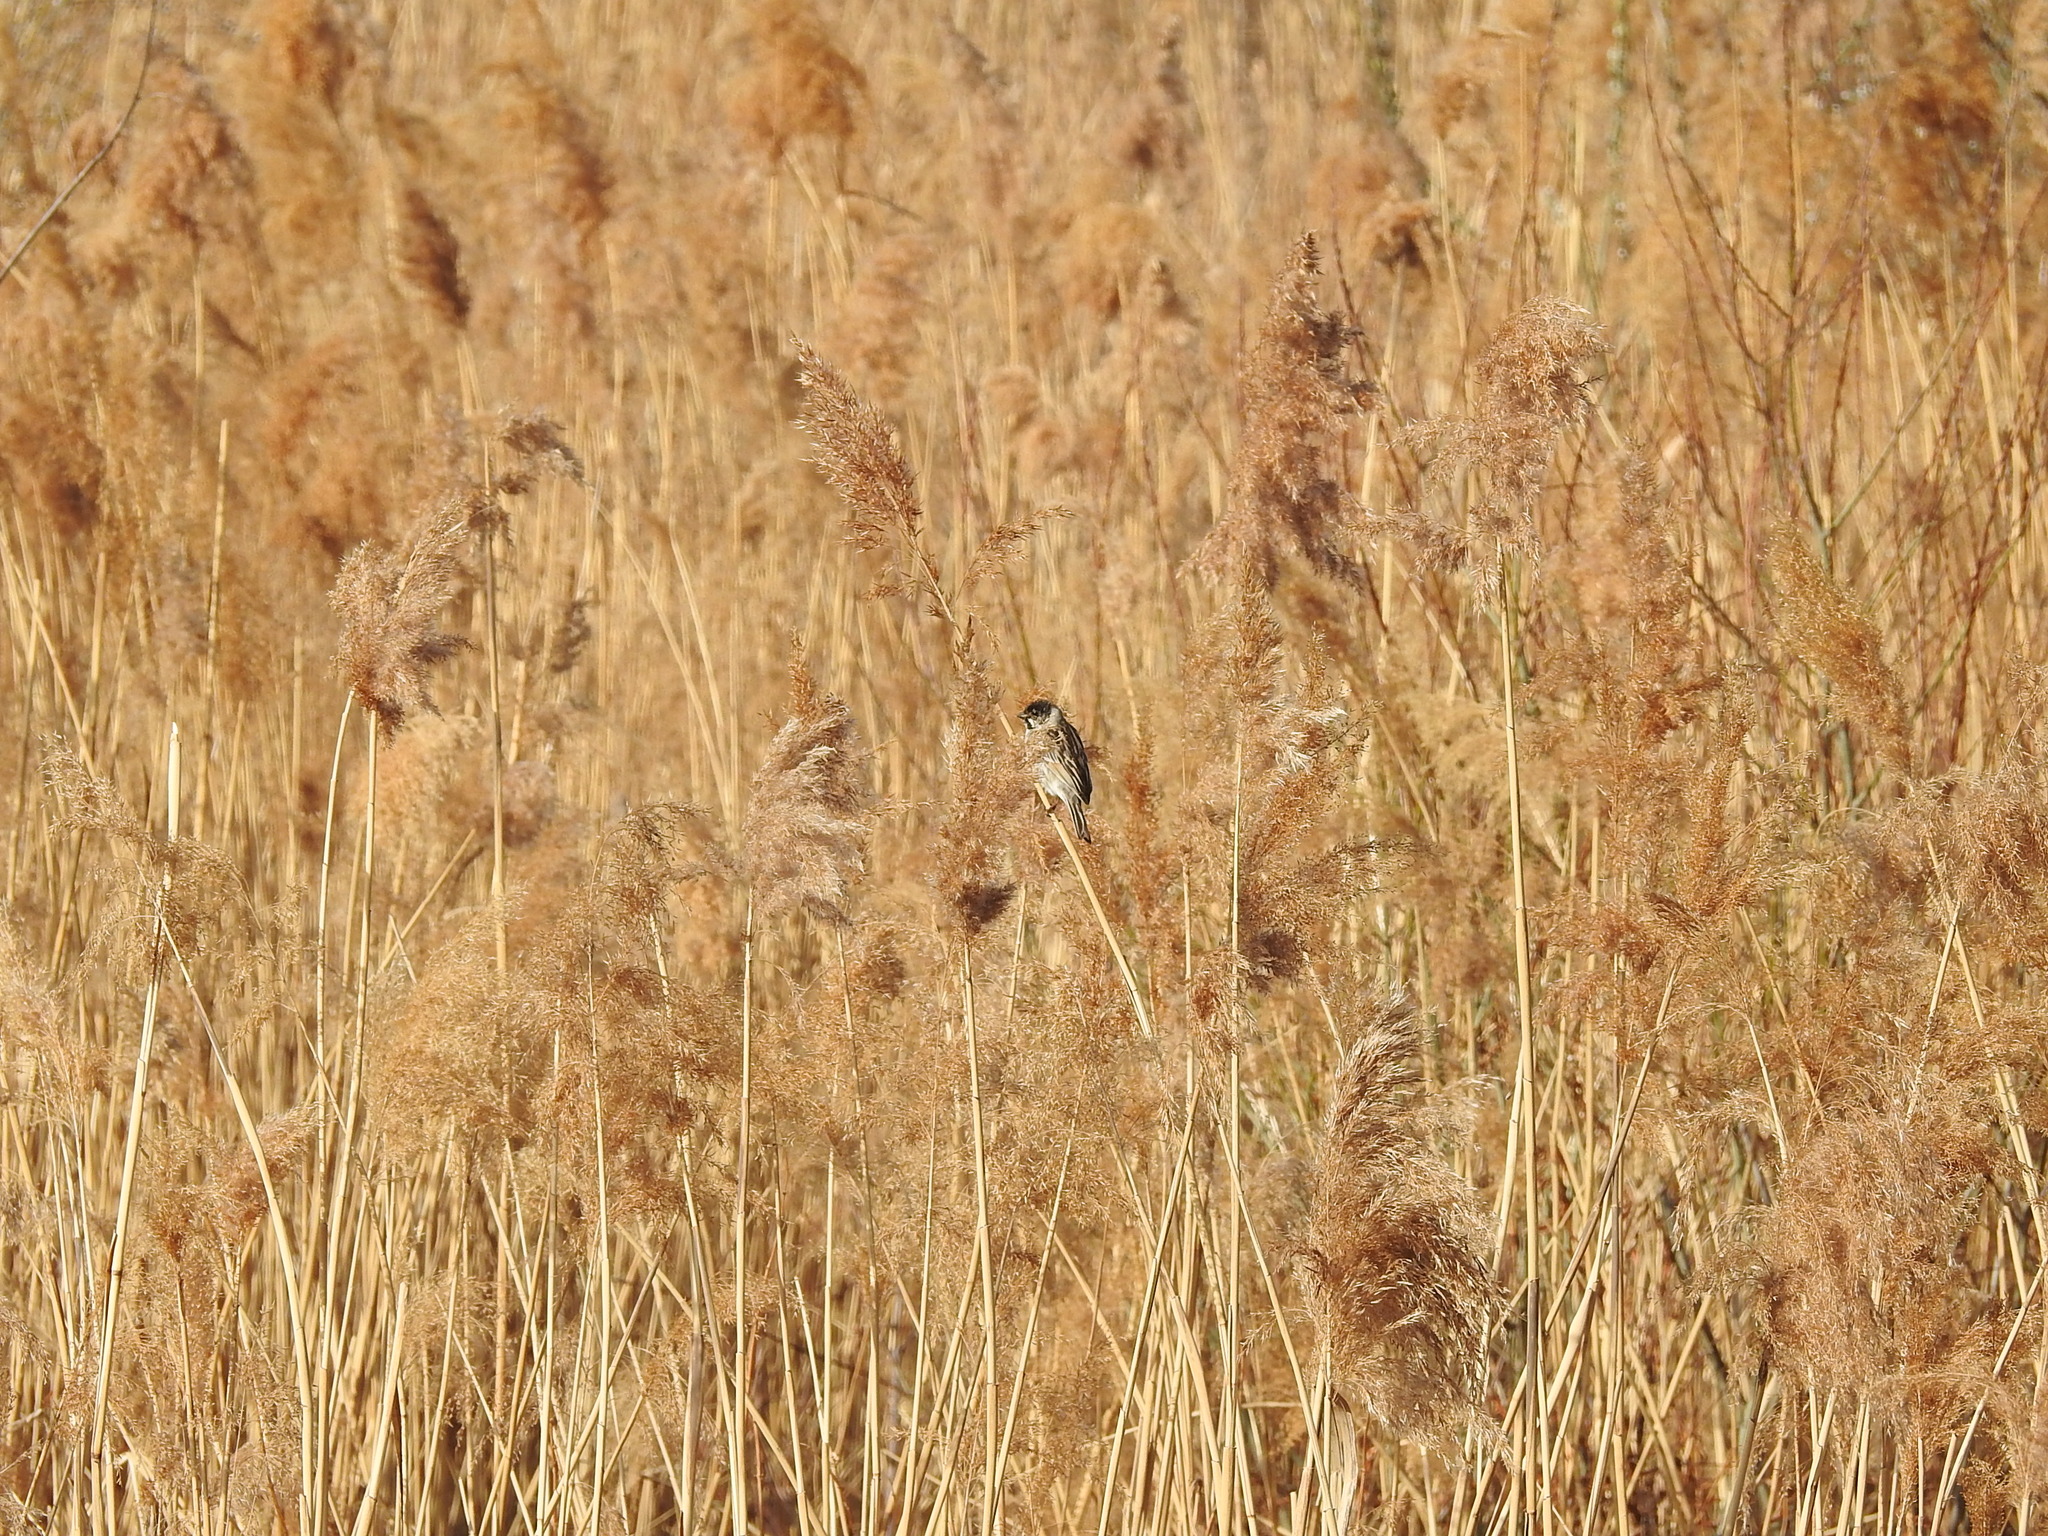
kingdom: Animalia
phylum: Chordata
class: Aves
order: Passeriformes
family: Emberizidae
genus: Emberiza
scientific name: Emberiza schoeniclus
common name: Reed bunting
